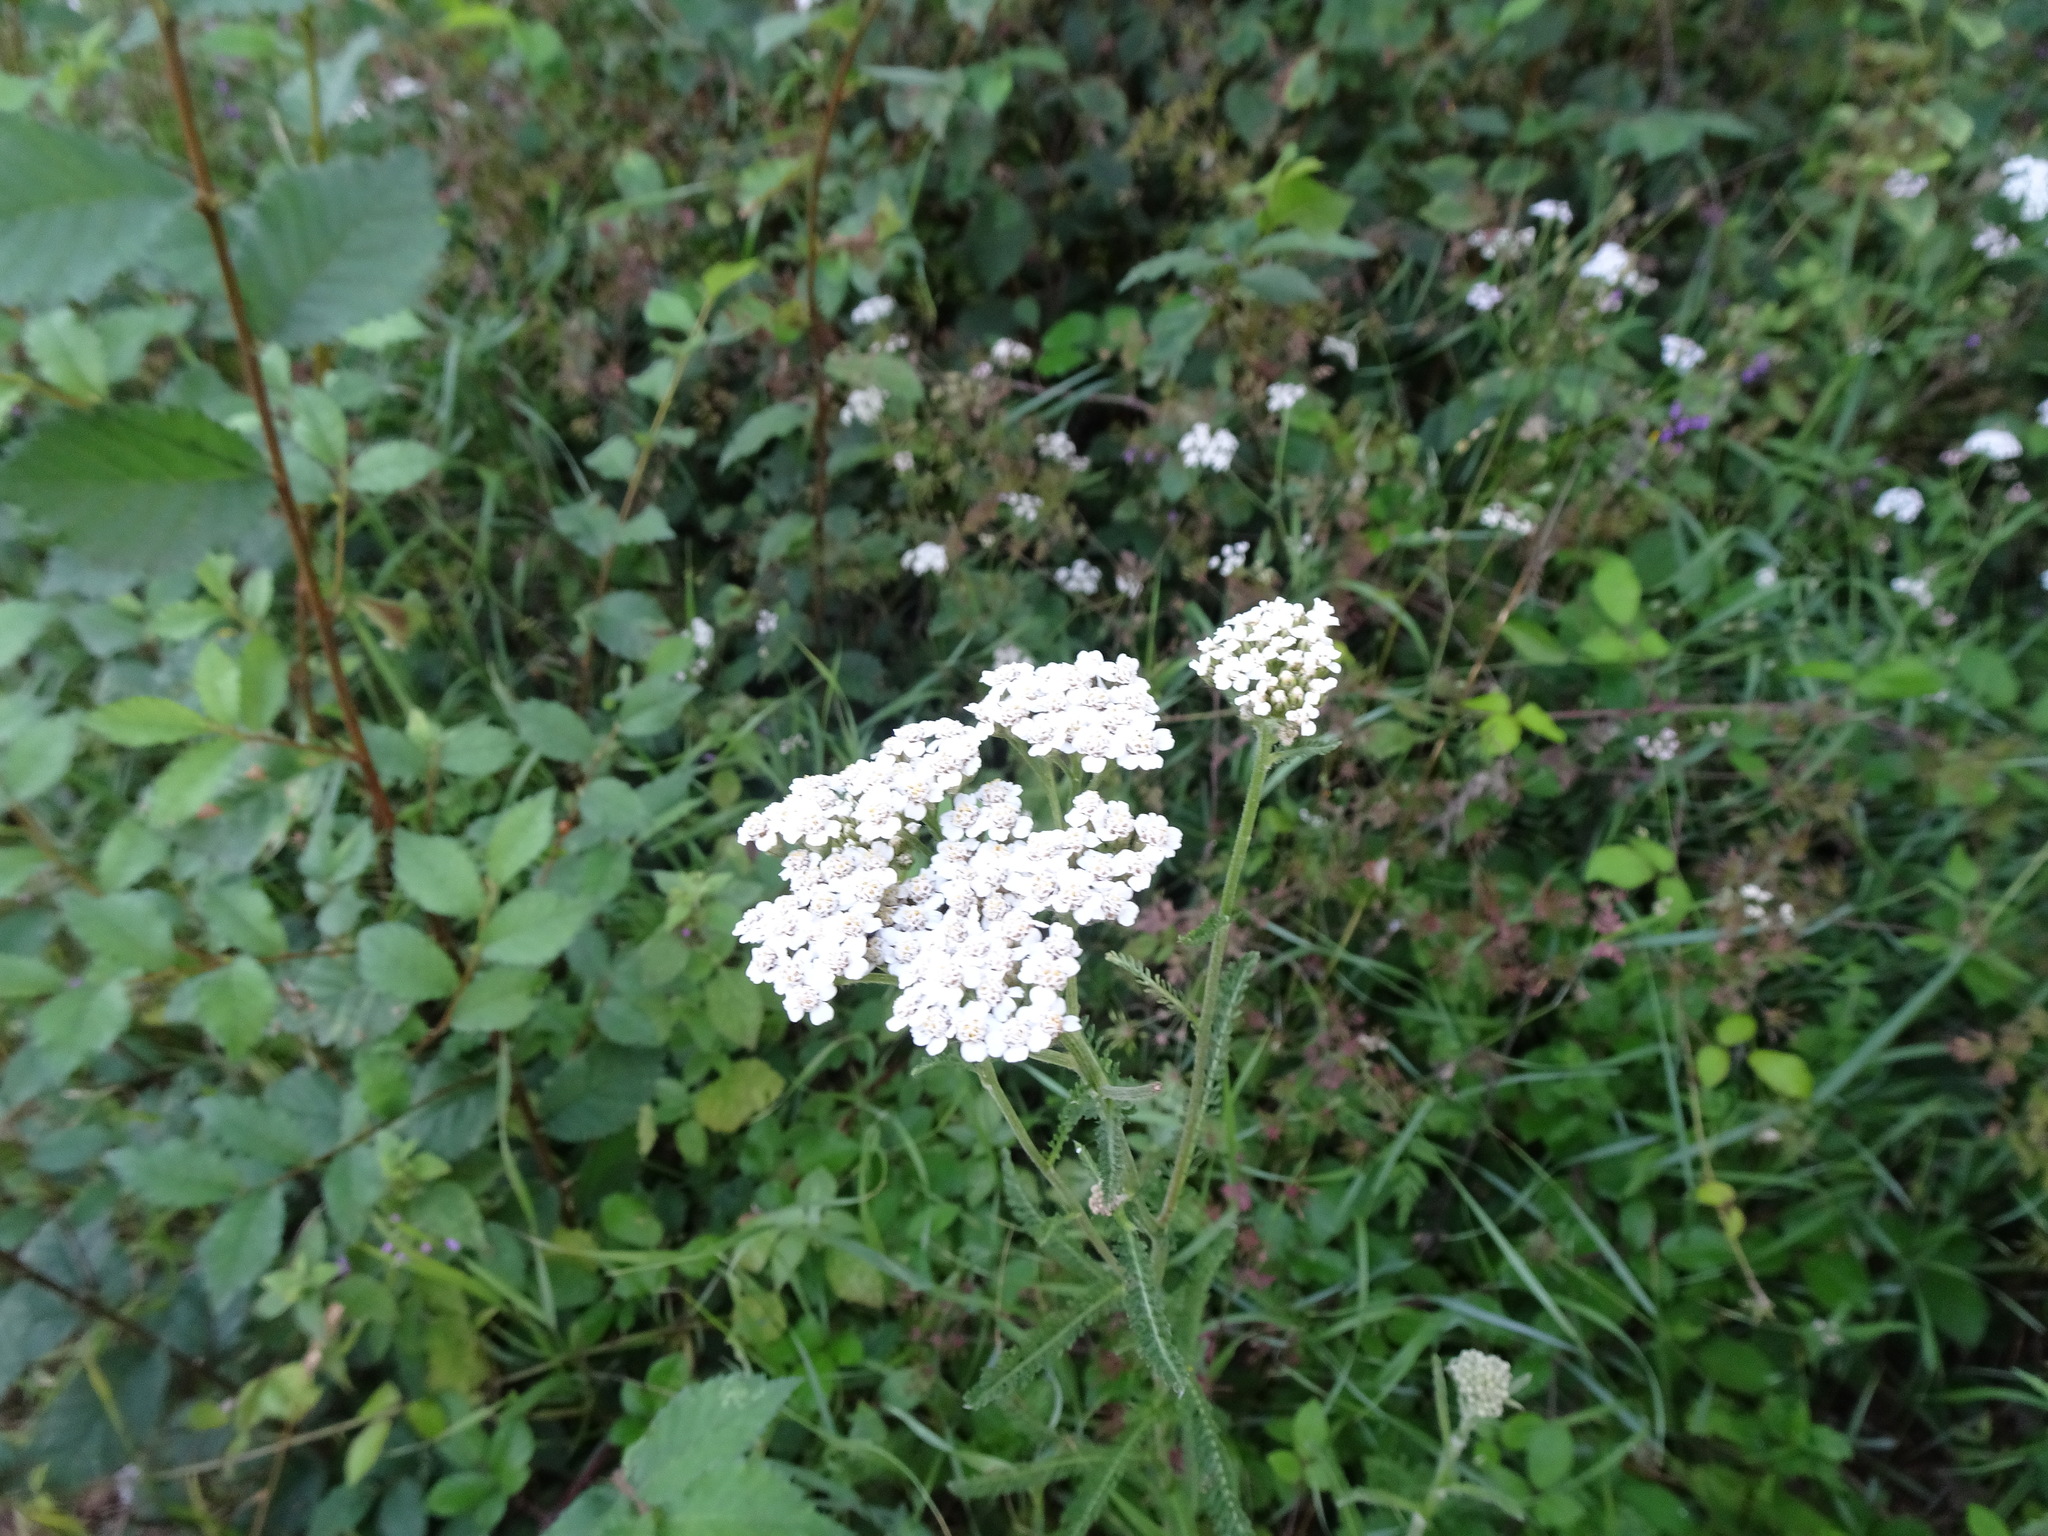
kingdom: Plantae
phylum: Tracheophyta
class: Magnoliopsida
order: Asterales
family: Asteraceae
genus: Achillea
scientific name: Achillea millefolium
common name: Yarrow
